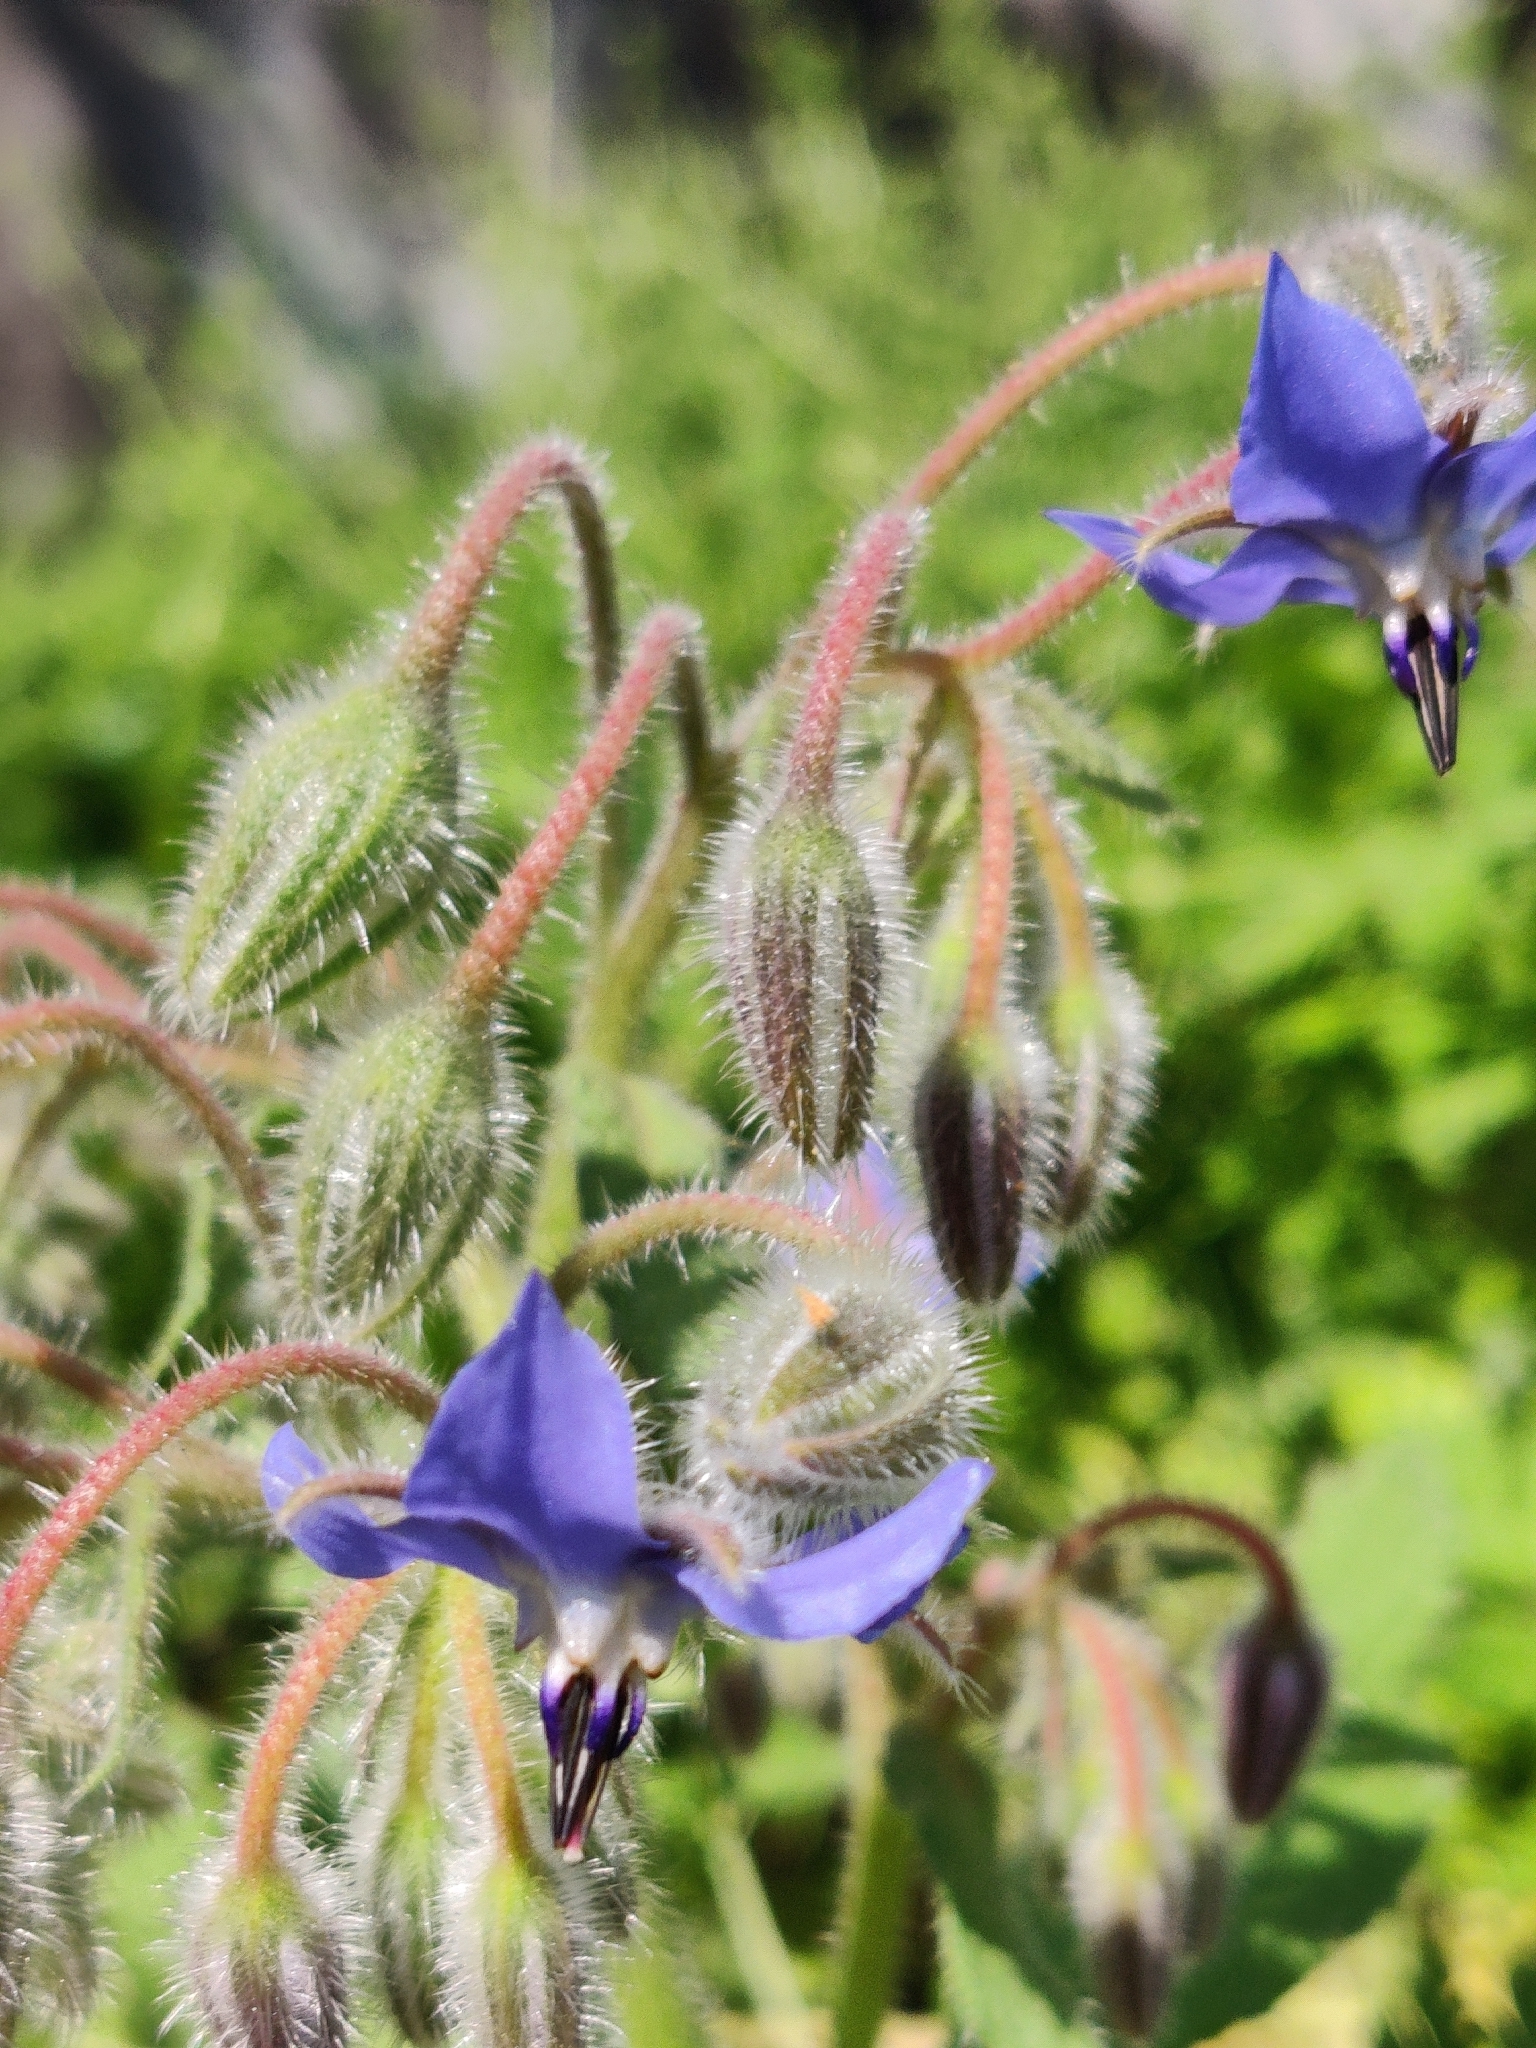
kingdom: Plantae
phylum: Tracheophyta
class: Magnoliopsida
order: Boraginales
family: Boraginaceae
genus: Borago
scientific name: Borago officinalis
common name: Borage
